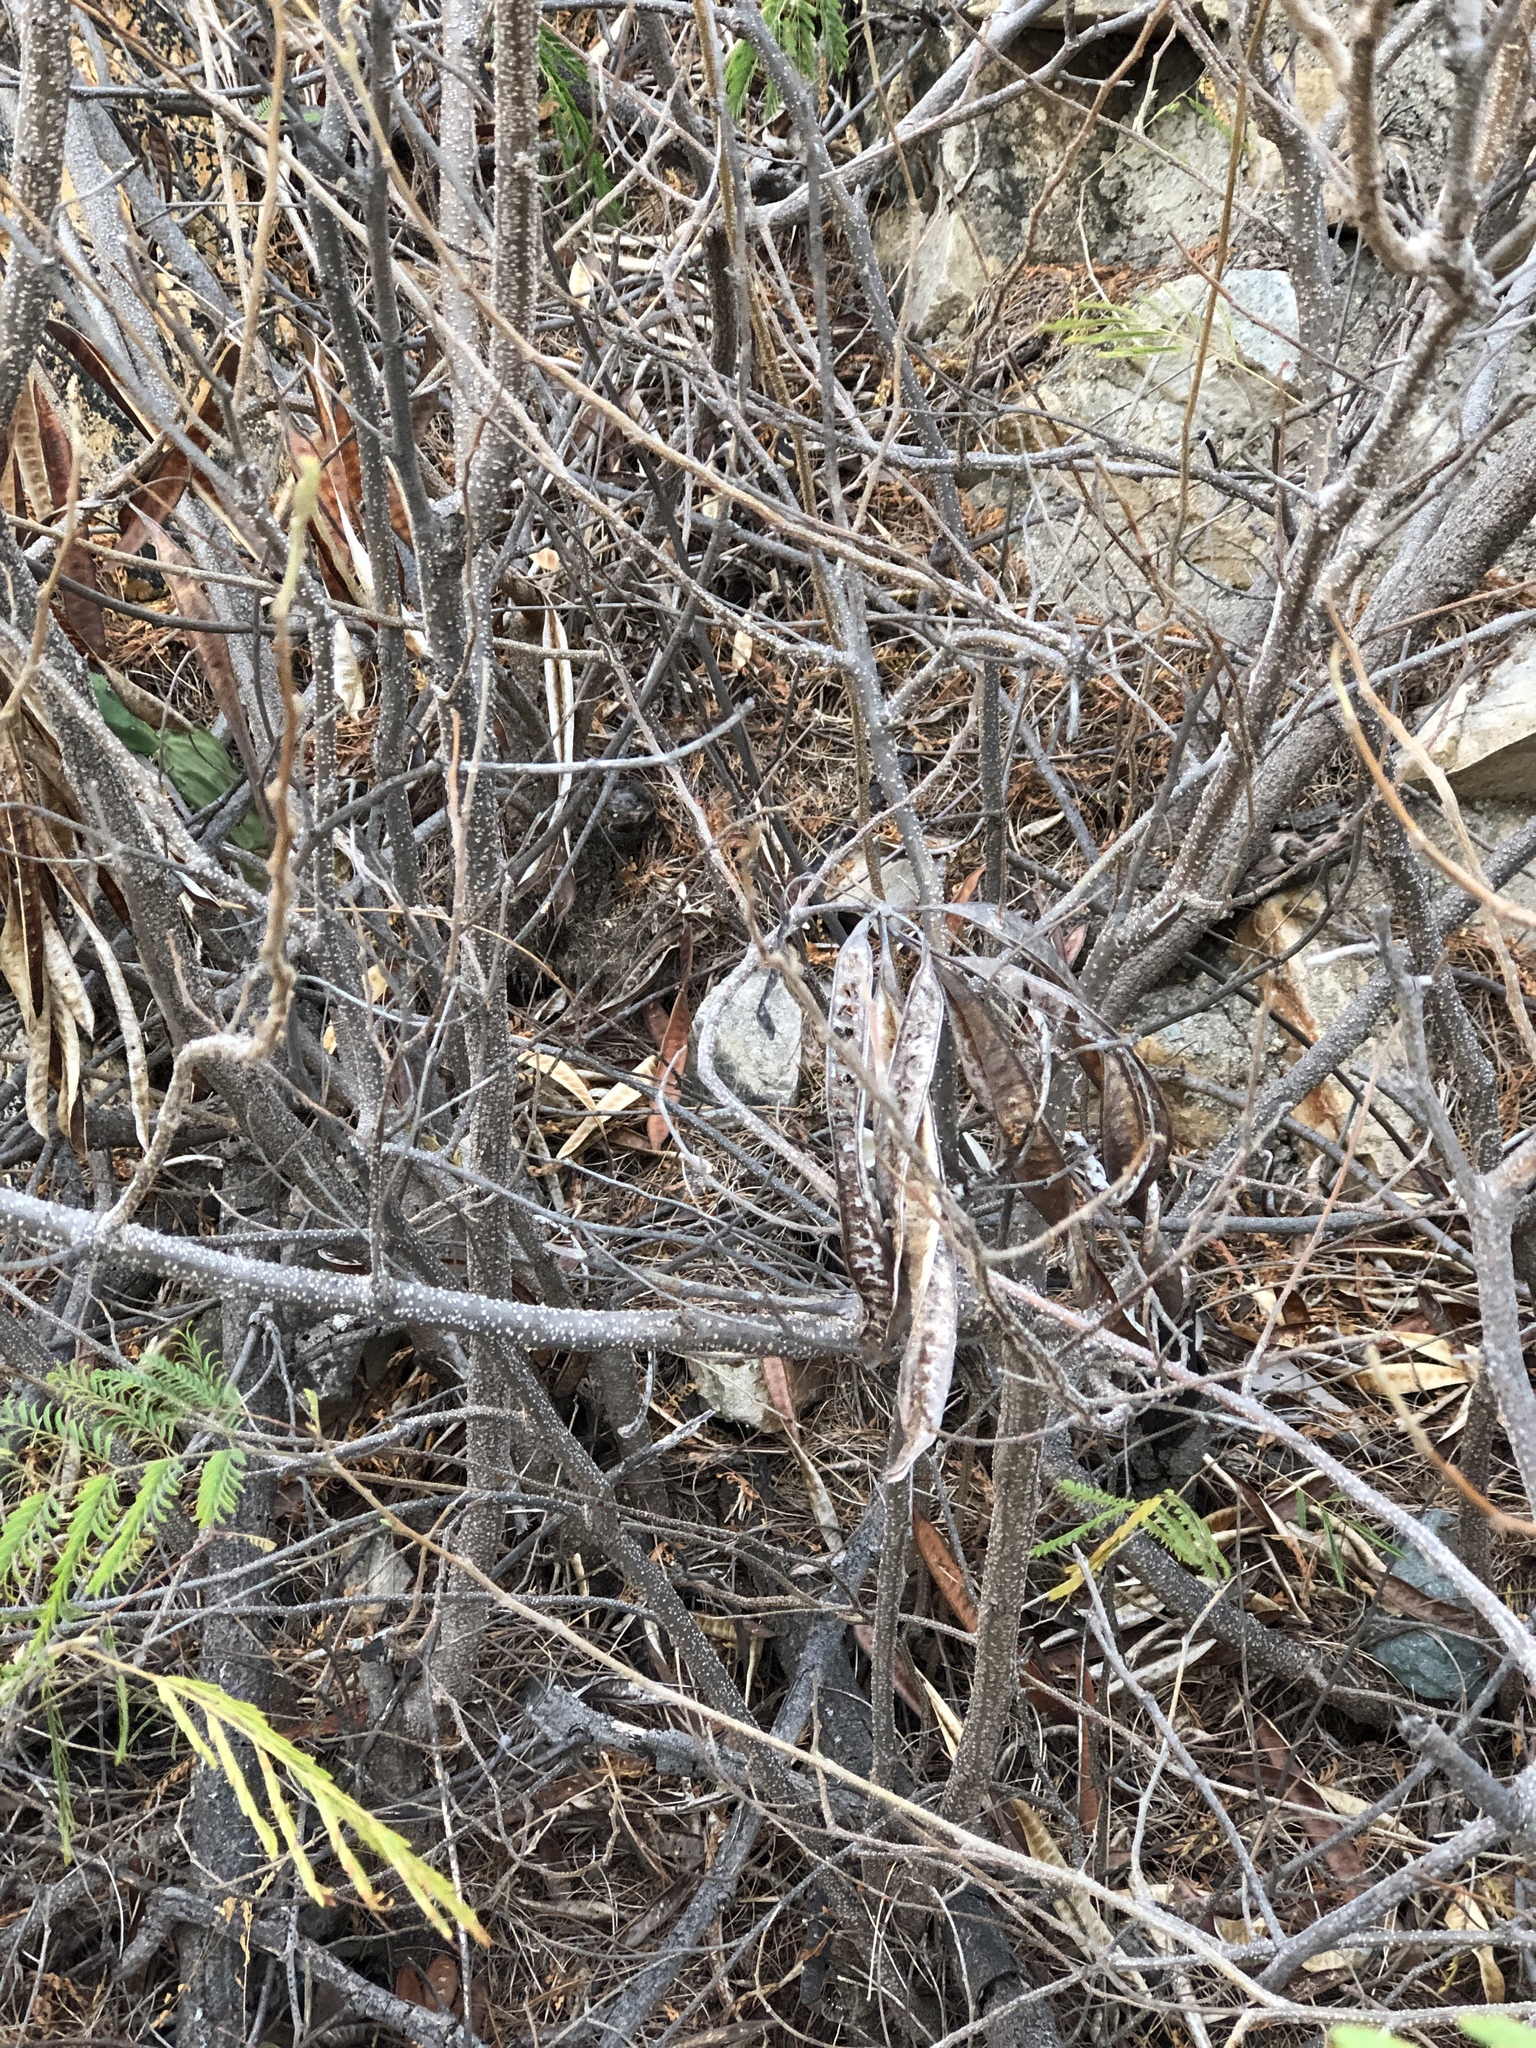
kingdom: Plantae
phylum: Tracheophyta
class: Magnoliopsida
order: Fabales
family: Fabaceae
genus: Leucaena
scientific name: Leucaena leucocephala
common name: White leadtree
